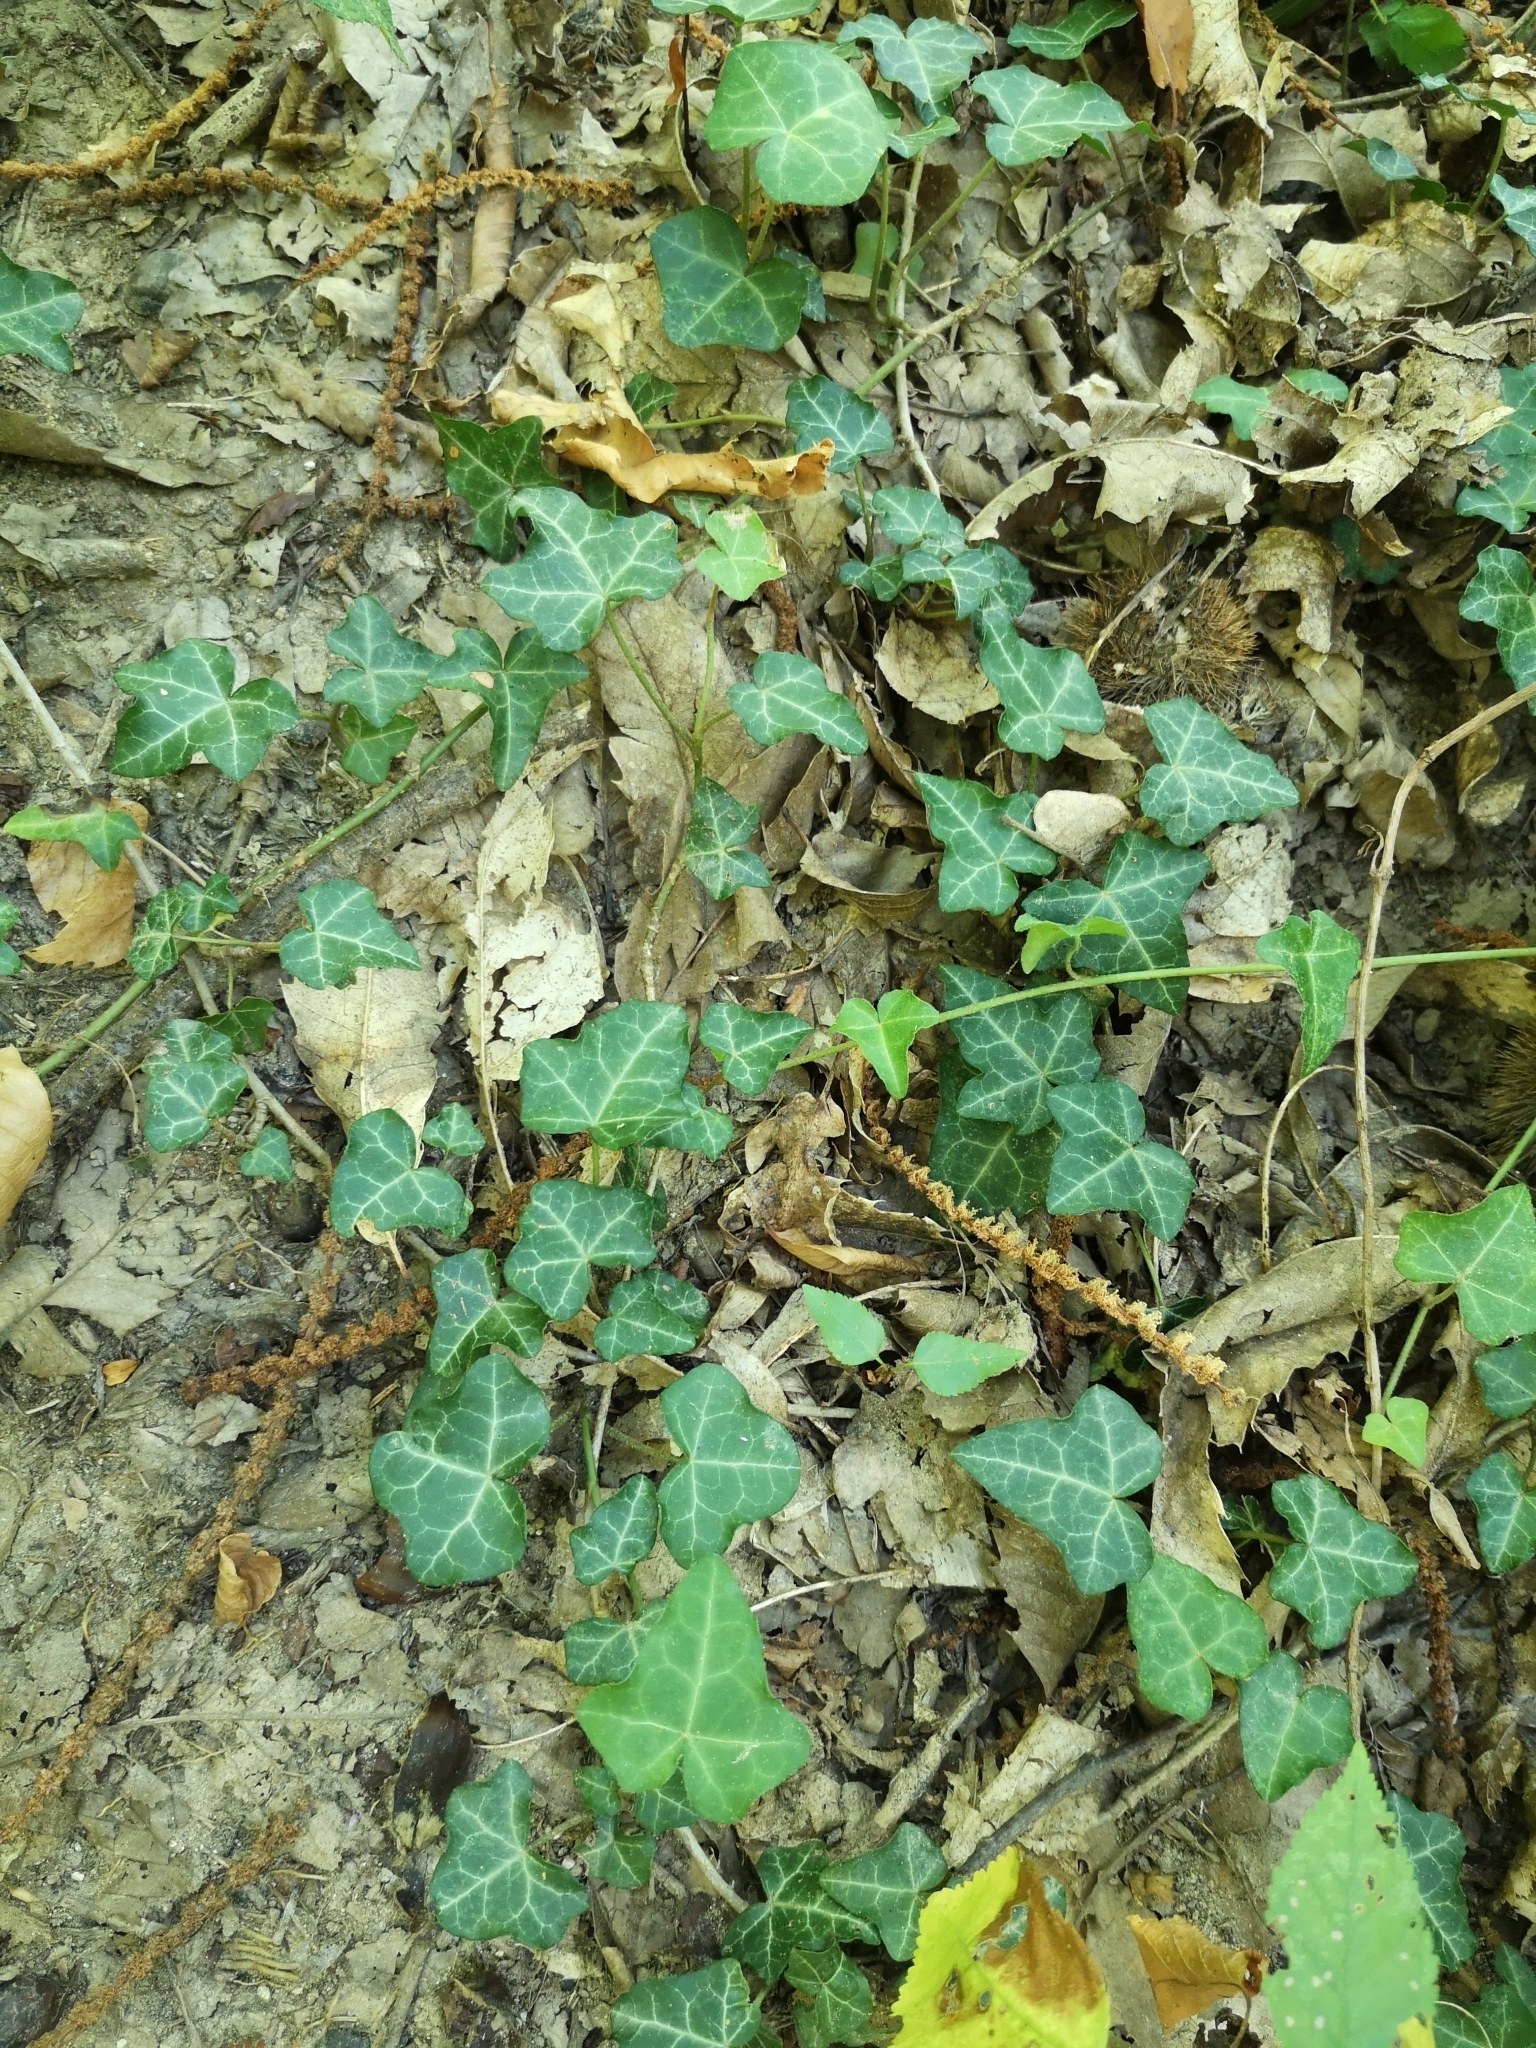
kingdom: Plantae
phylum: Tracheophyta
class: Magnoliopsida
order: Apiales
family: Araliaceae
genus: Hedera
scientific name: Hedera helix
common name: Ivy
